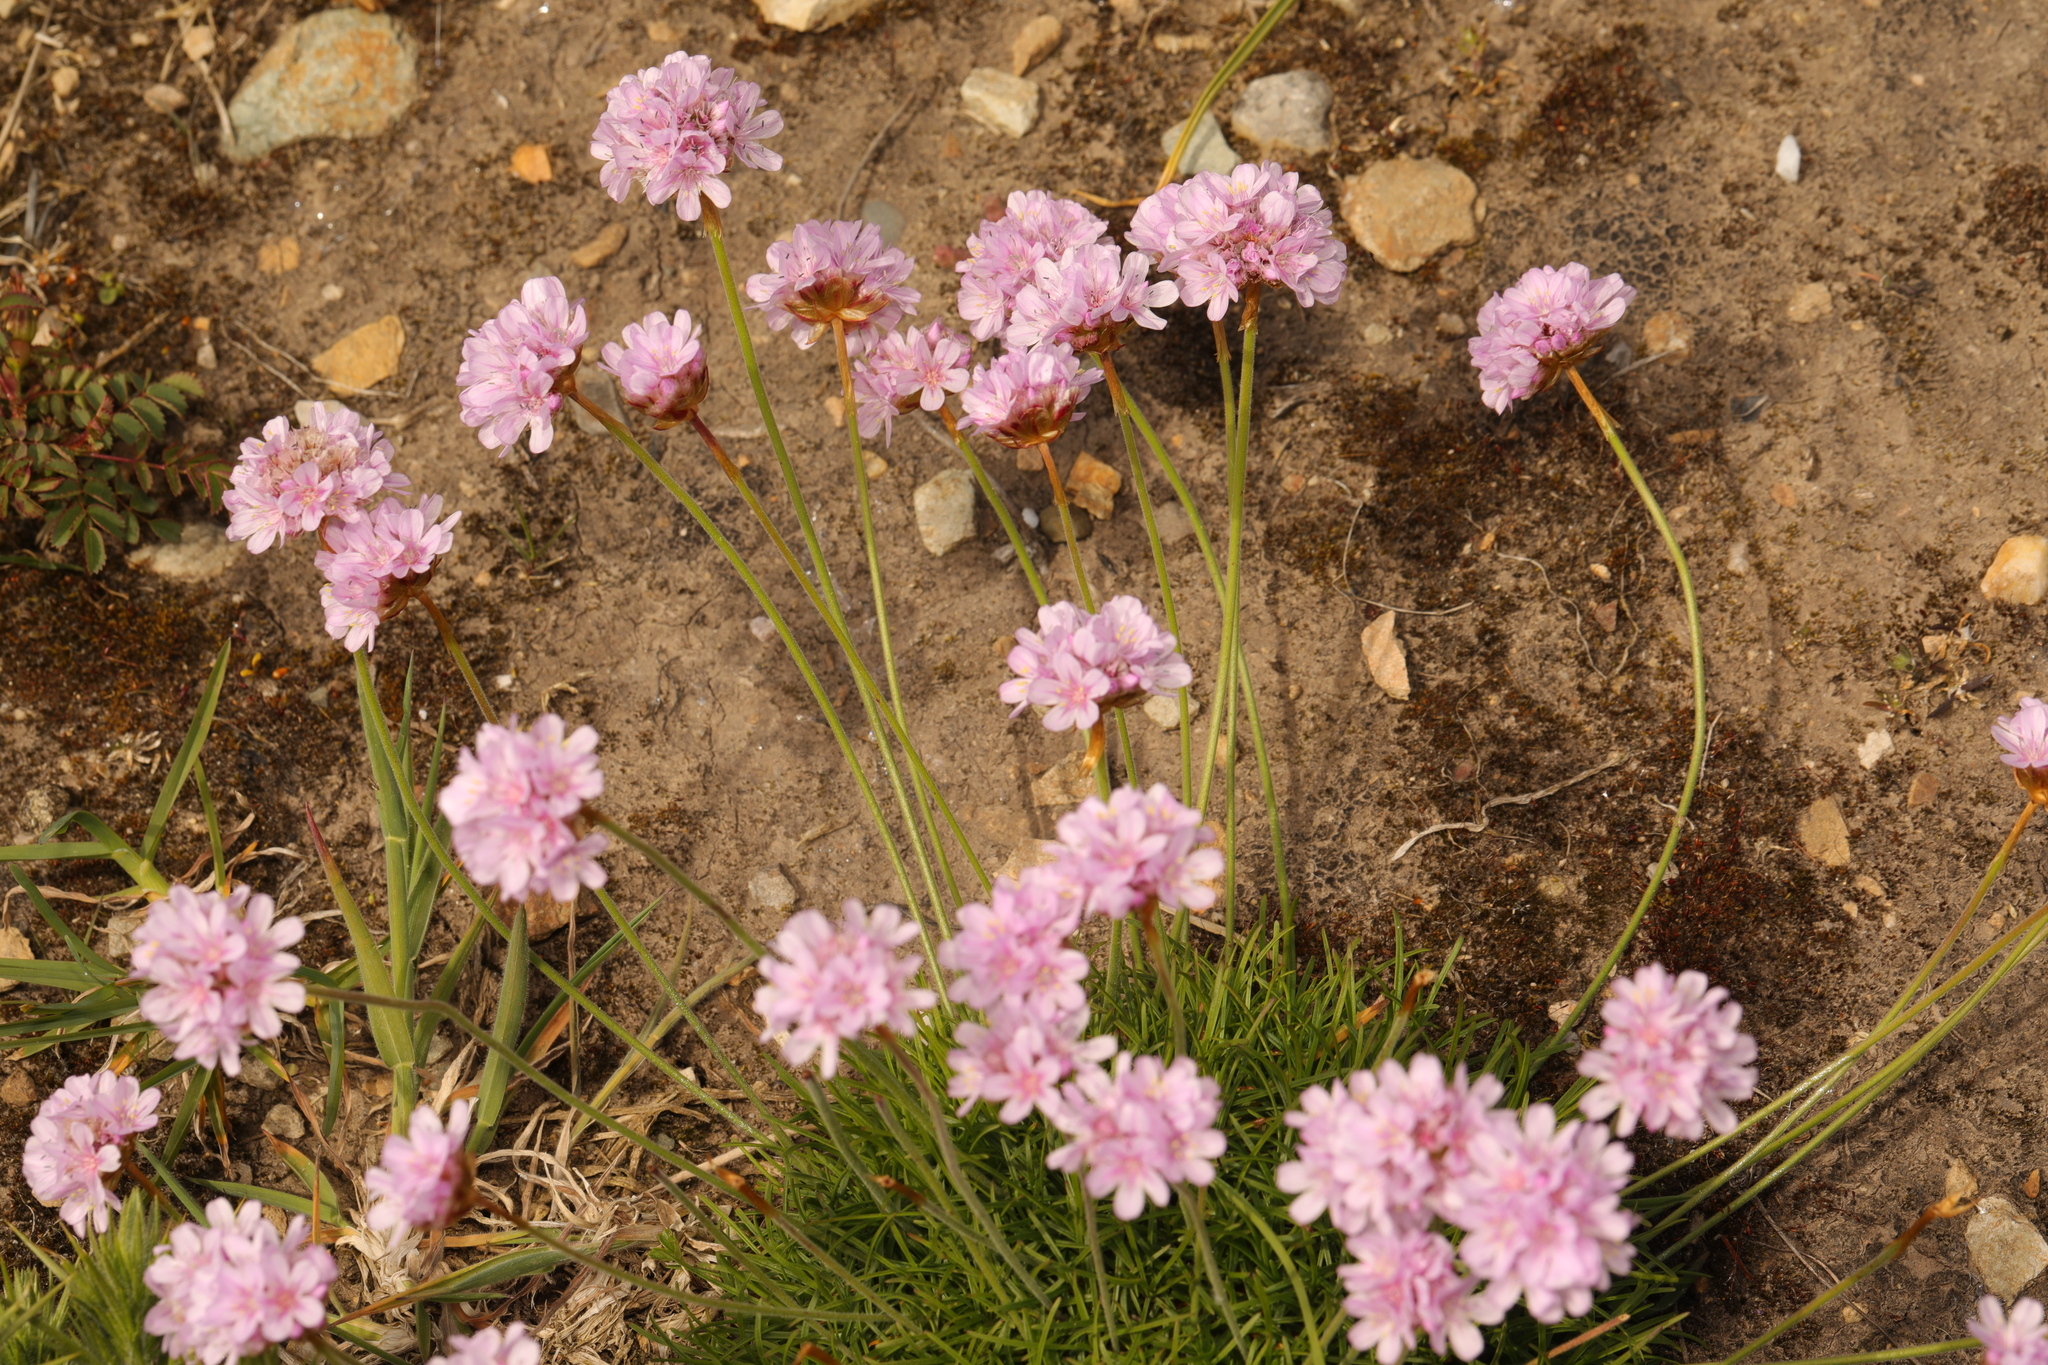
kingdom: Plantae
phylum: Tracheophyta
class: Magnoliopsida
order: Caryophyllales
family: Plumbaginaceae
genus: Armeria
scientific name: Armeria maritima
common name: Thrift
